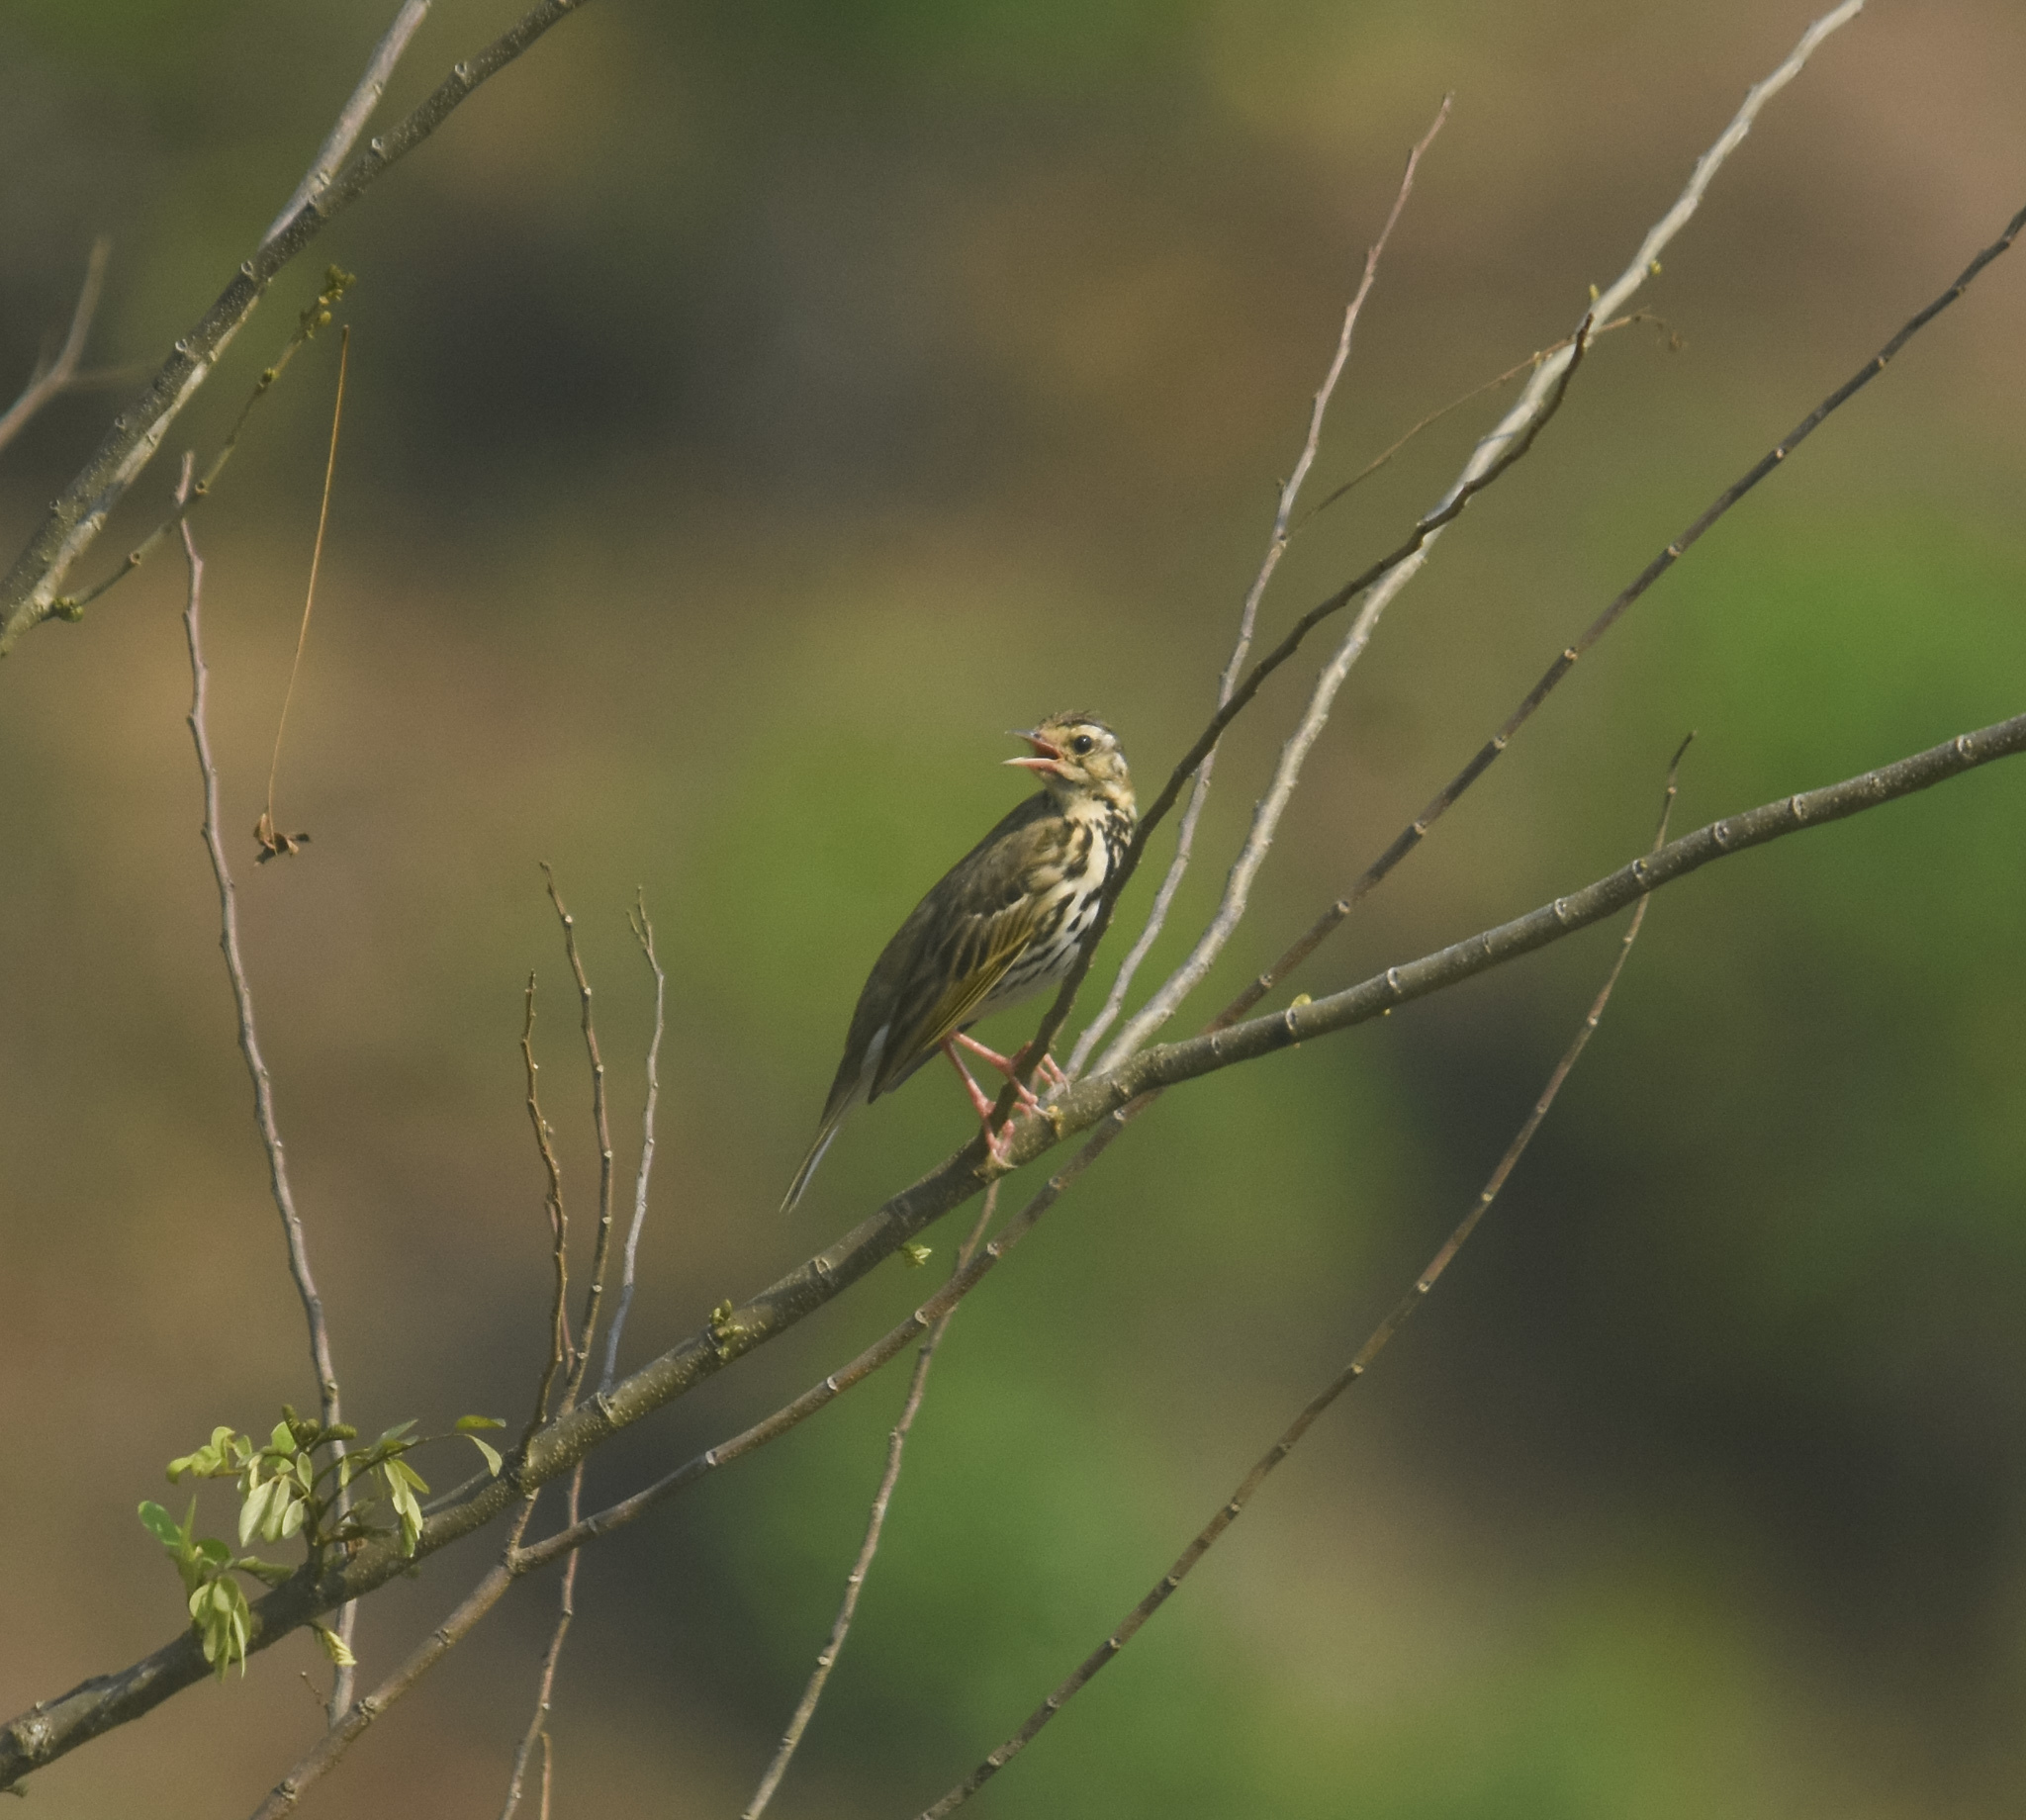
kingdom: Animalia
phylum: Chordata
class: Aves
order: Passeriformes
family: Motacillidae
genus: Anthus
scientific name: Anthus hodgsoni
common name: Olive-backed pipit
